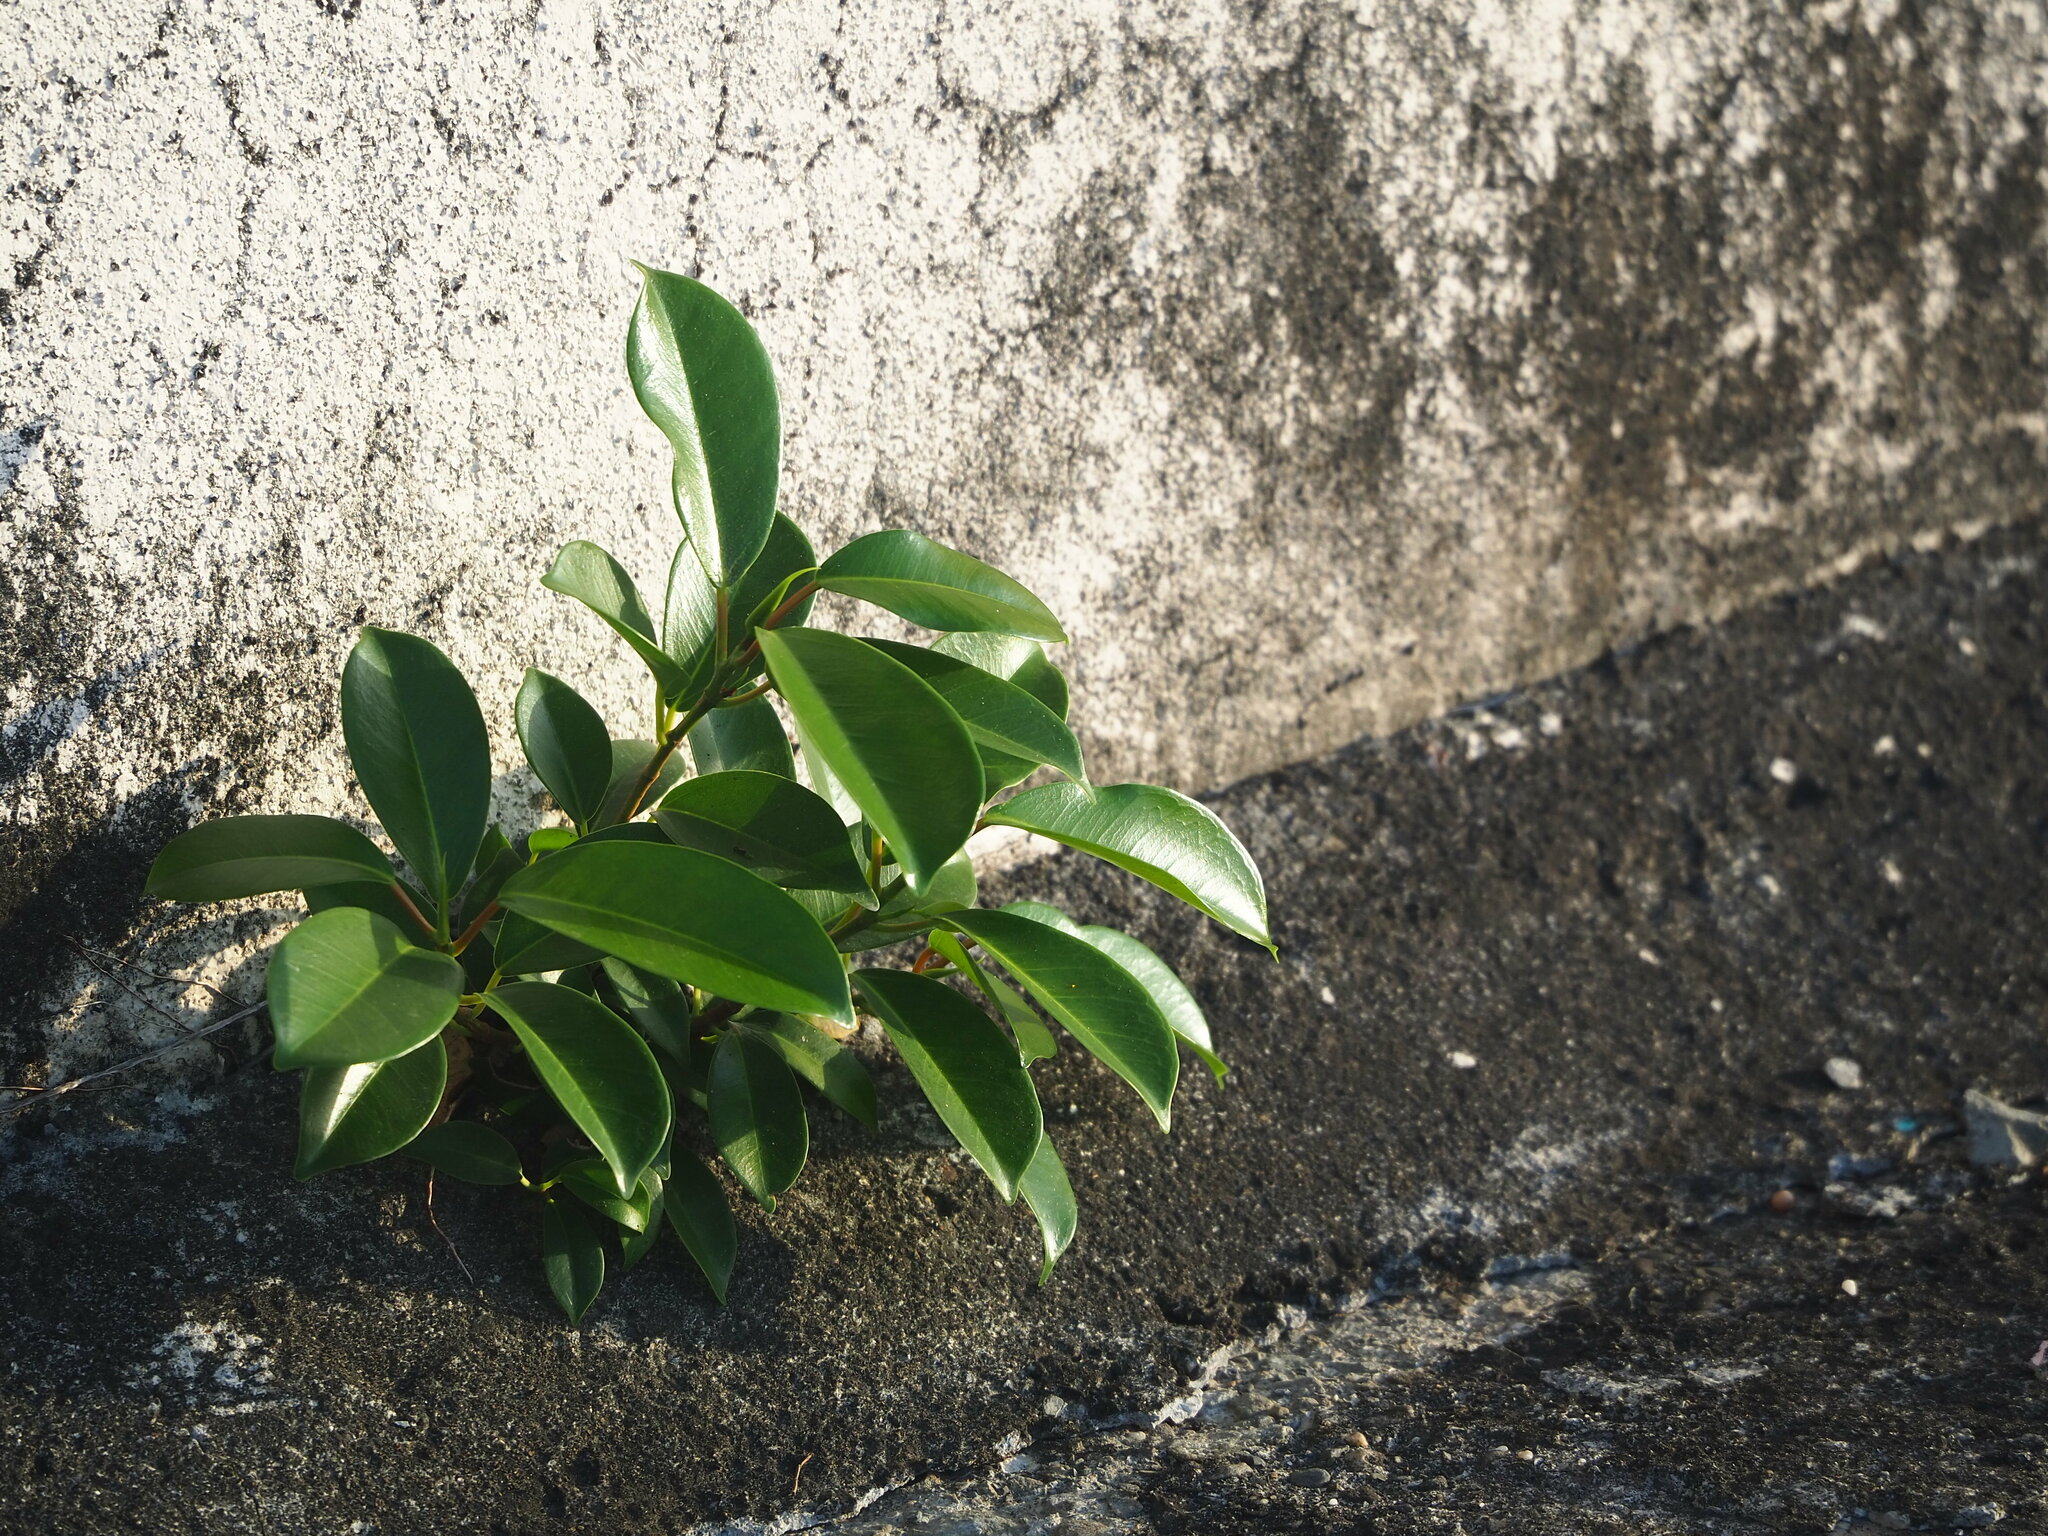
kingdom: Plantae
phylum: Tracheophyta
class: Magnoliopsida
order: Rosales
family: Moraceae
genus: Ficus
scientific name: Ficus microcarpa
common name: Chinese banyan
